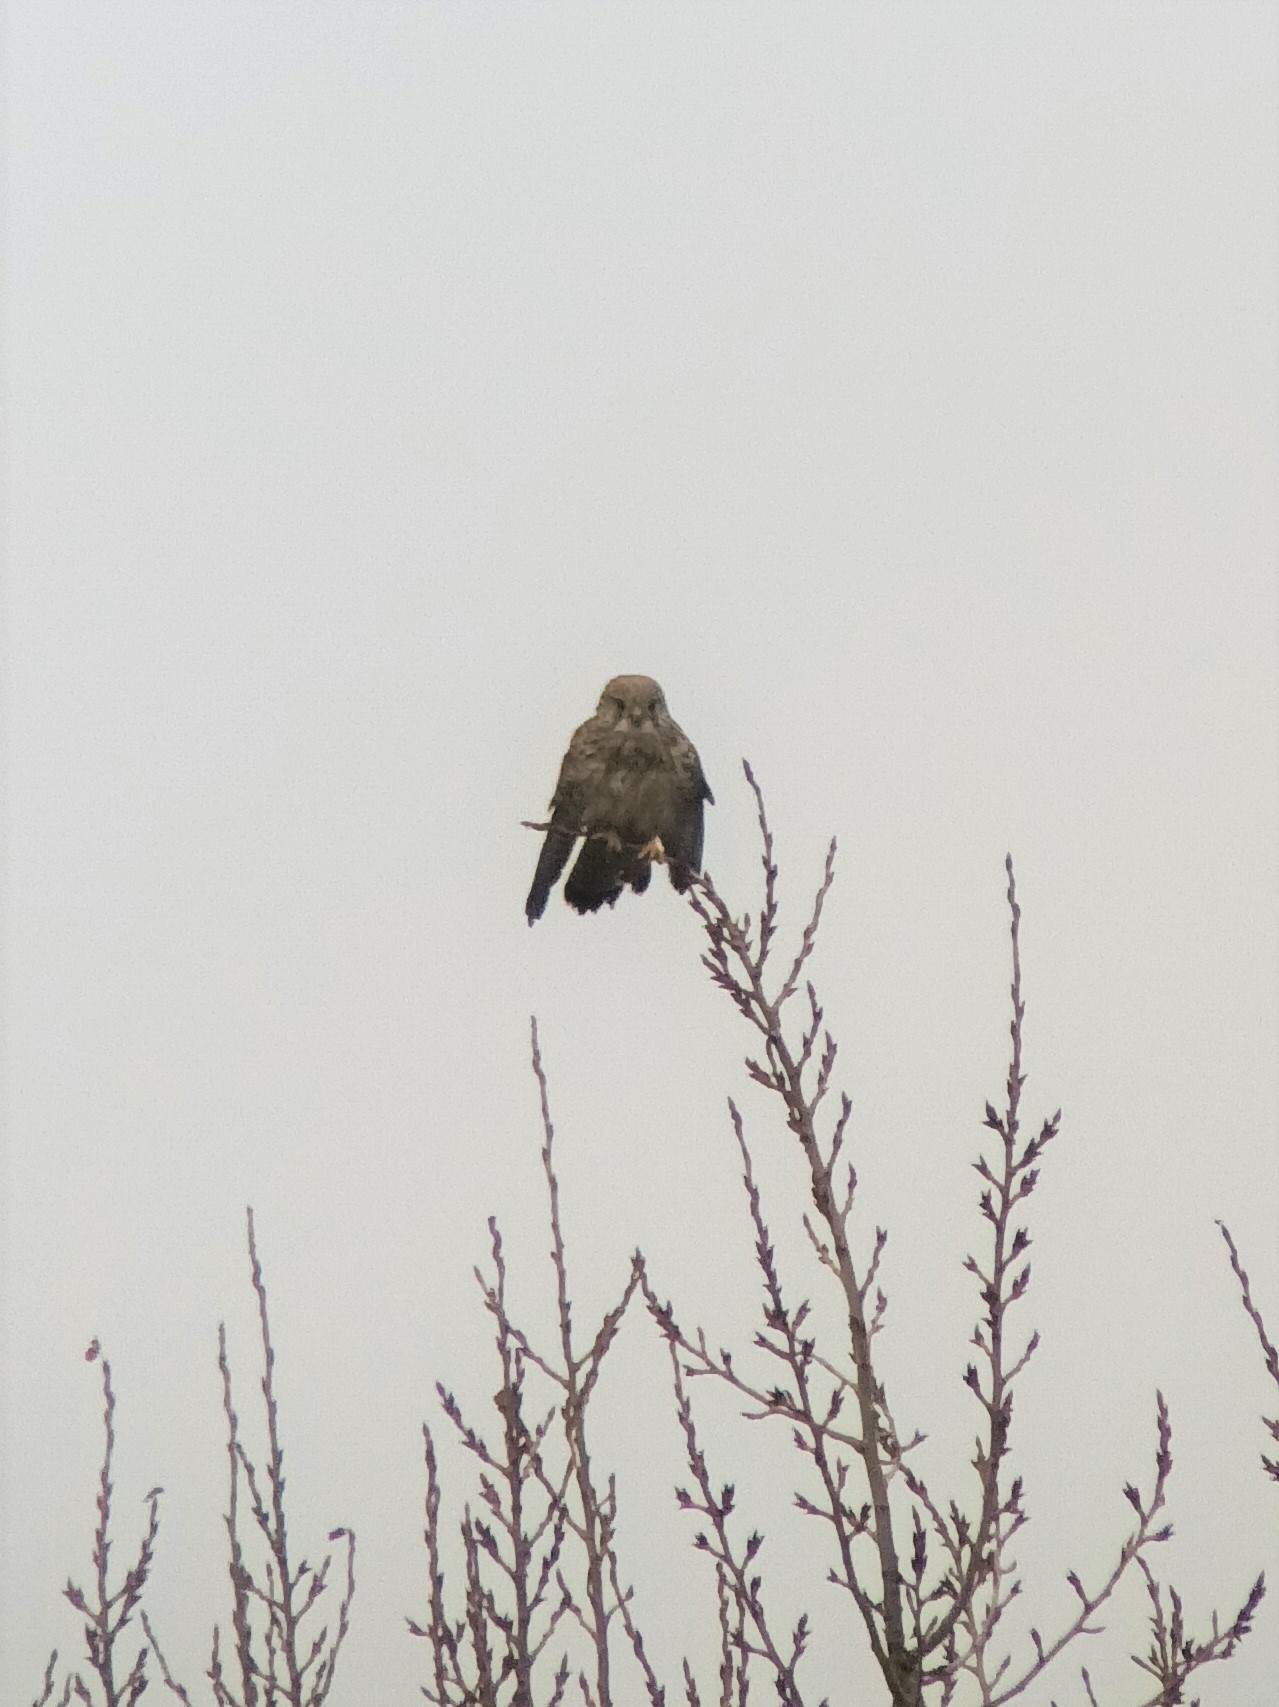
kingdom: Animalia
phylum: Chordata
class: Aves
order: Falconiformes
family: Falconidae
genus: Falco
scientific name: Falco tinnunculus
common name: Common kestrel
